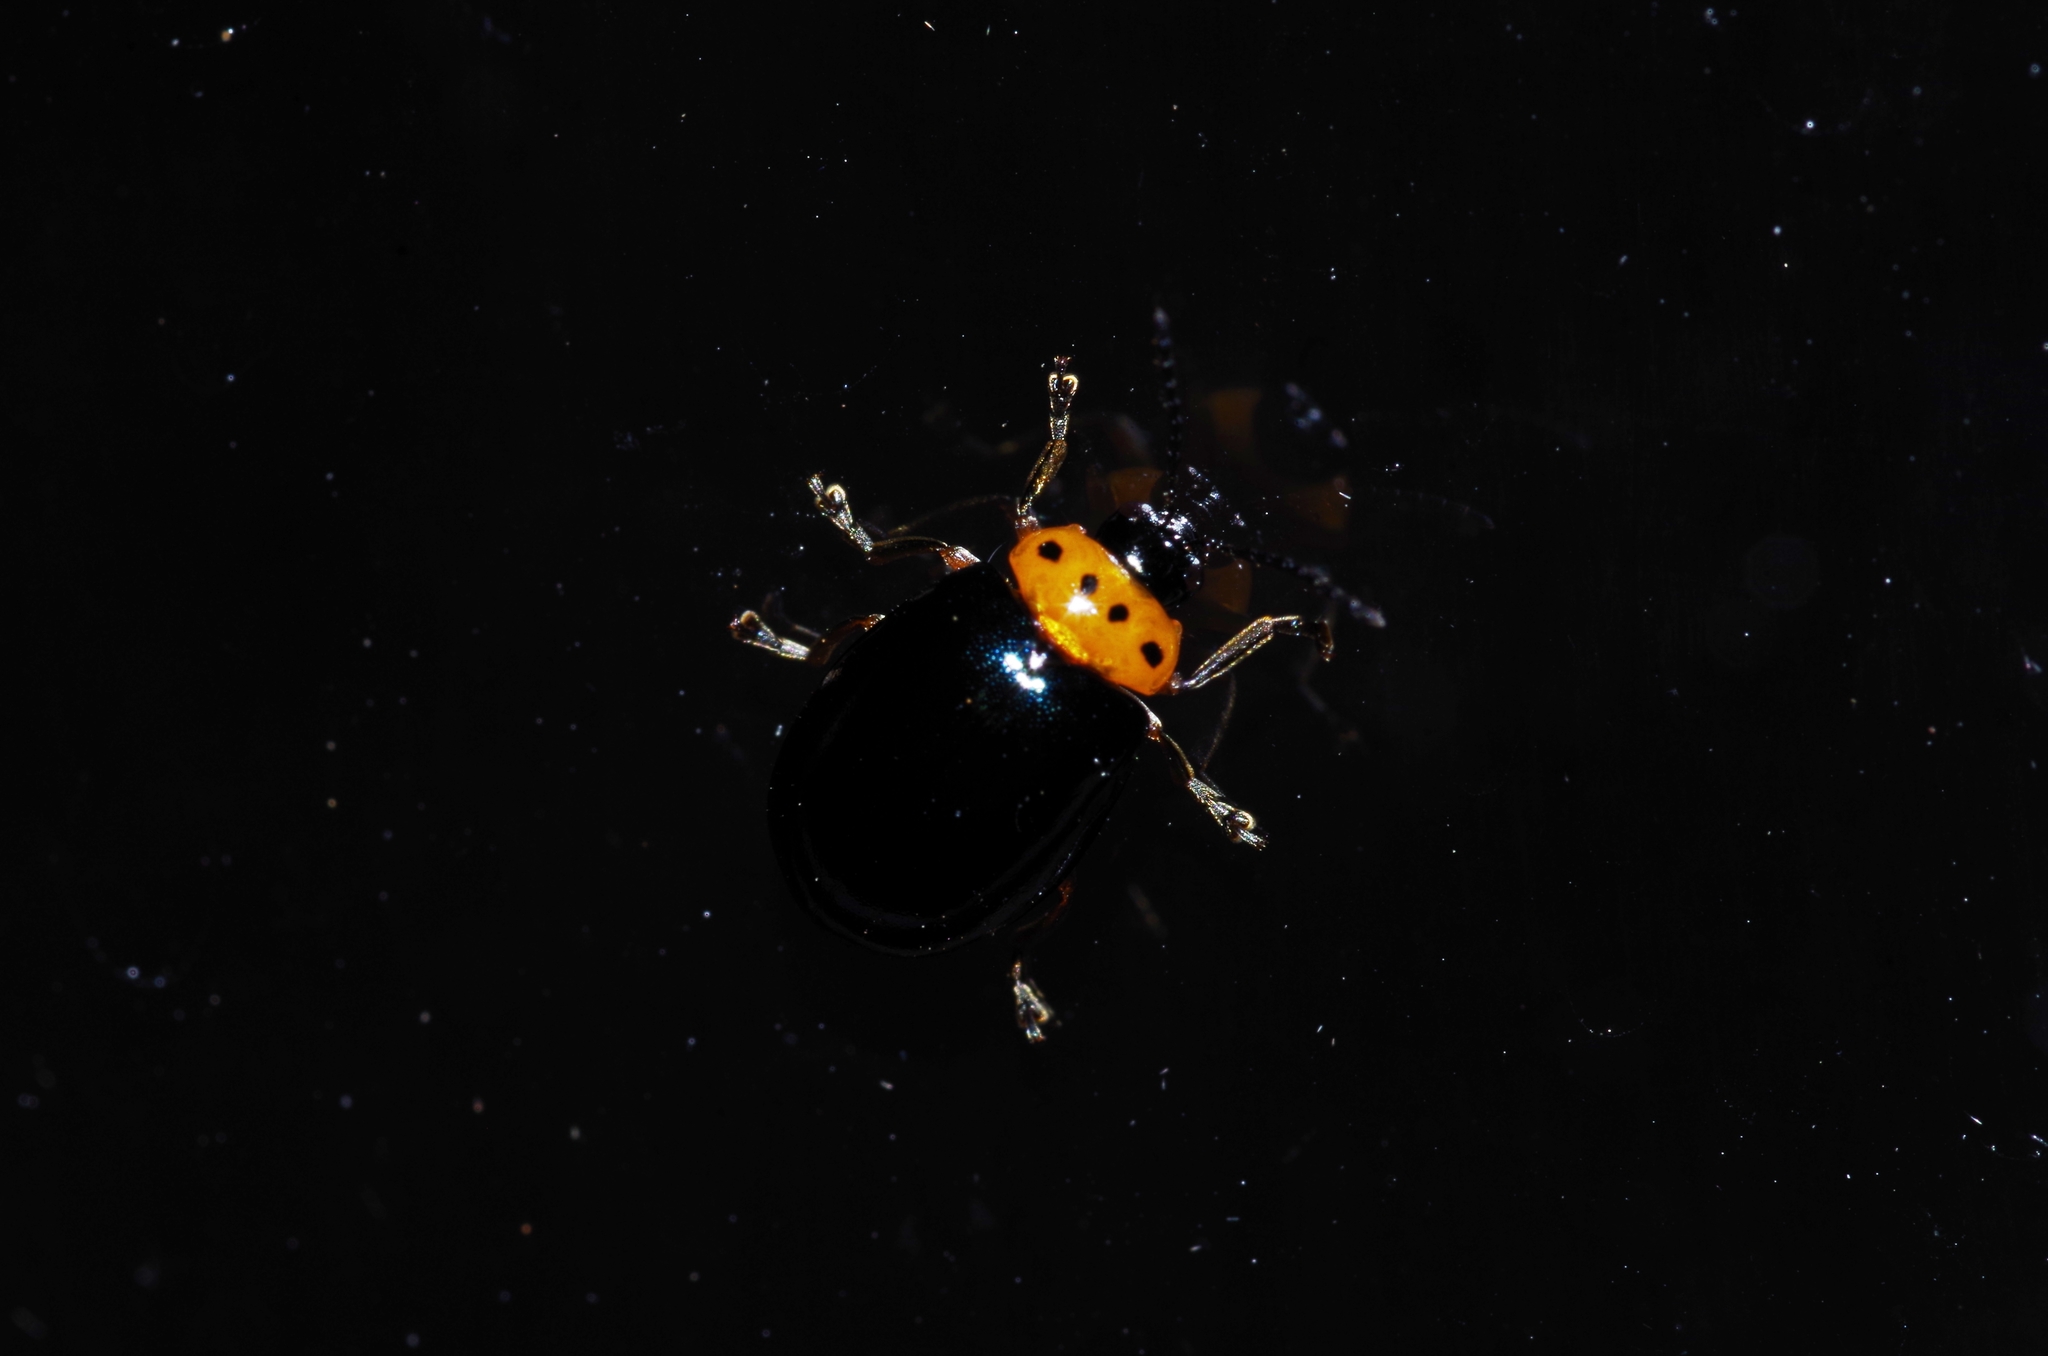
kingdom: Animalia
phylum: Arthropoda
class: Insecta
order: Coleoptera
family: Chrysomelidae
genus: Morphosphaera
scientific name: Morphosphaera caerulea
